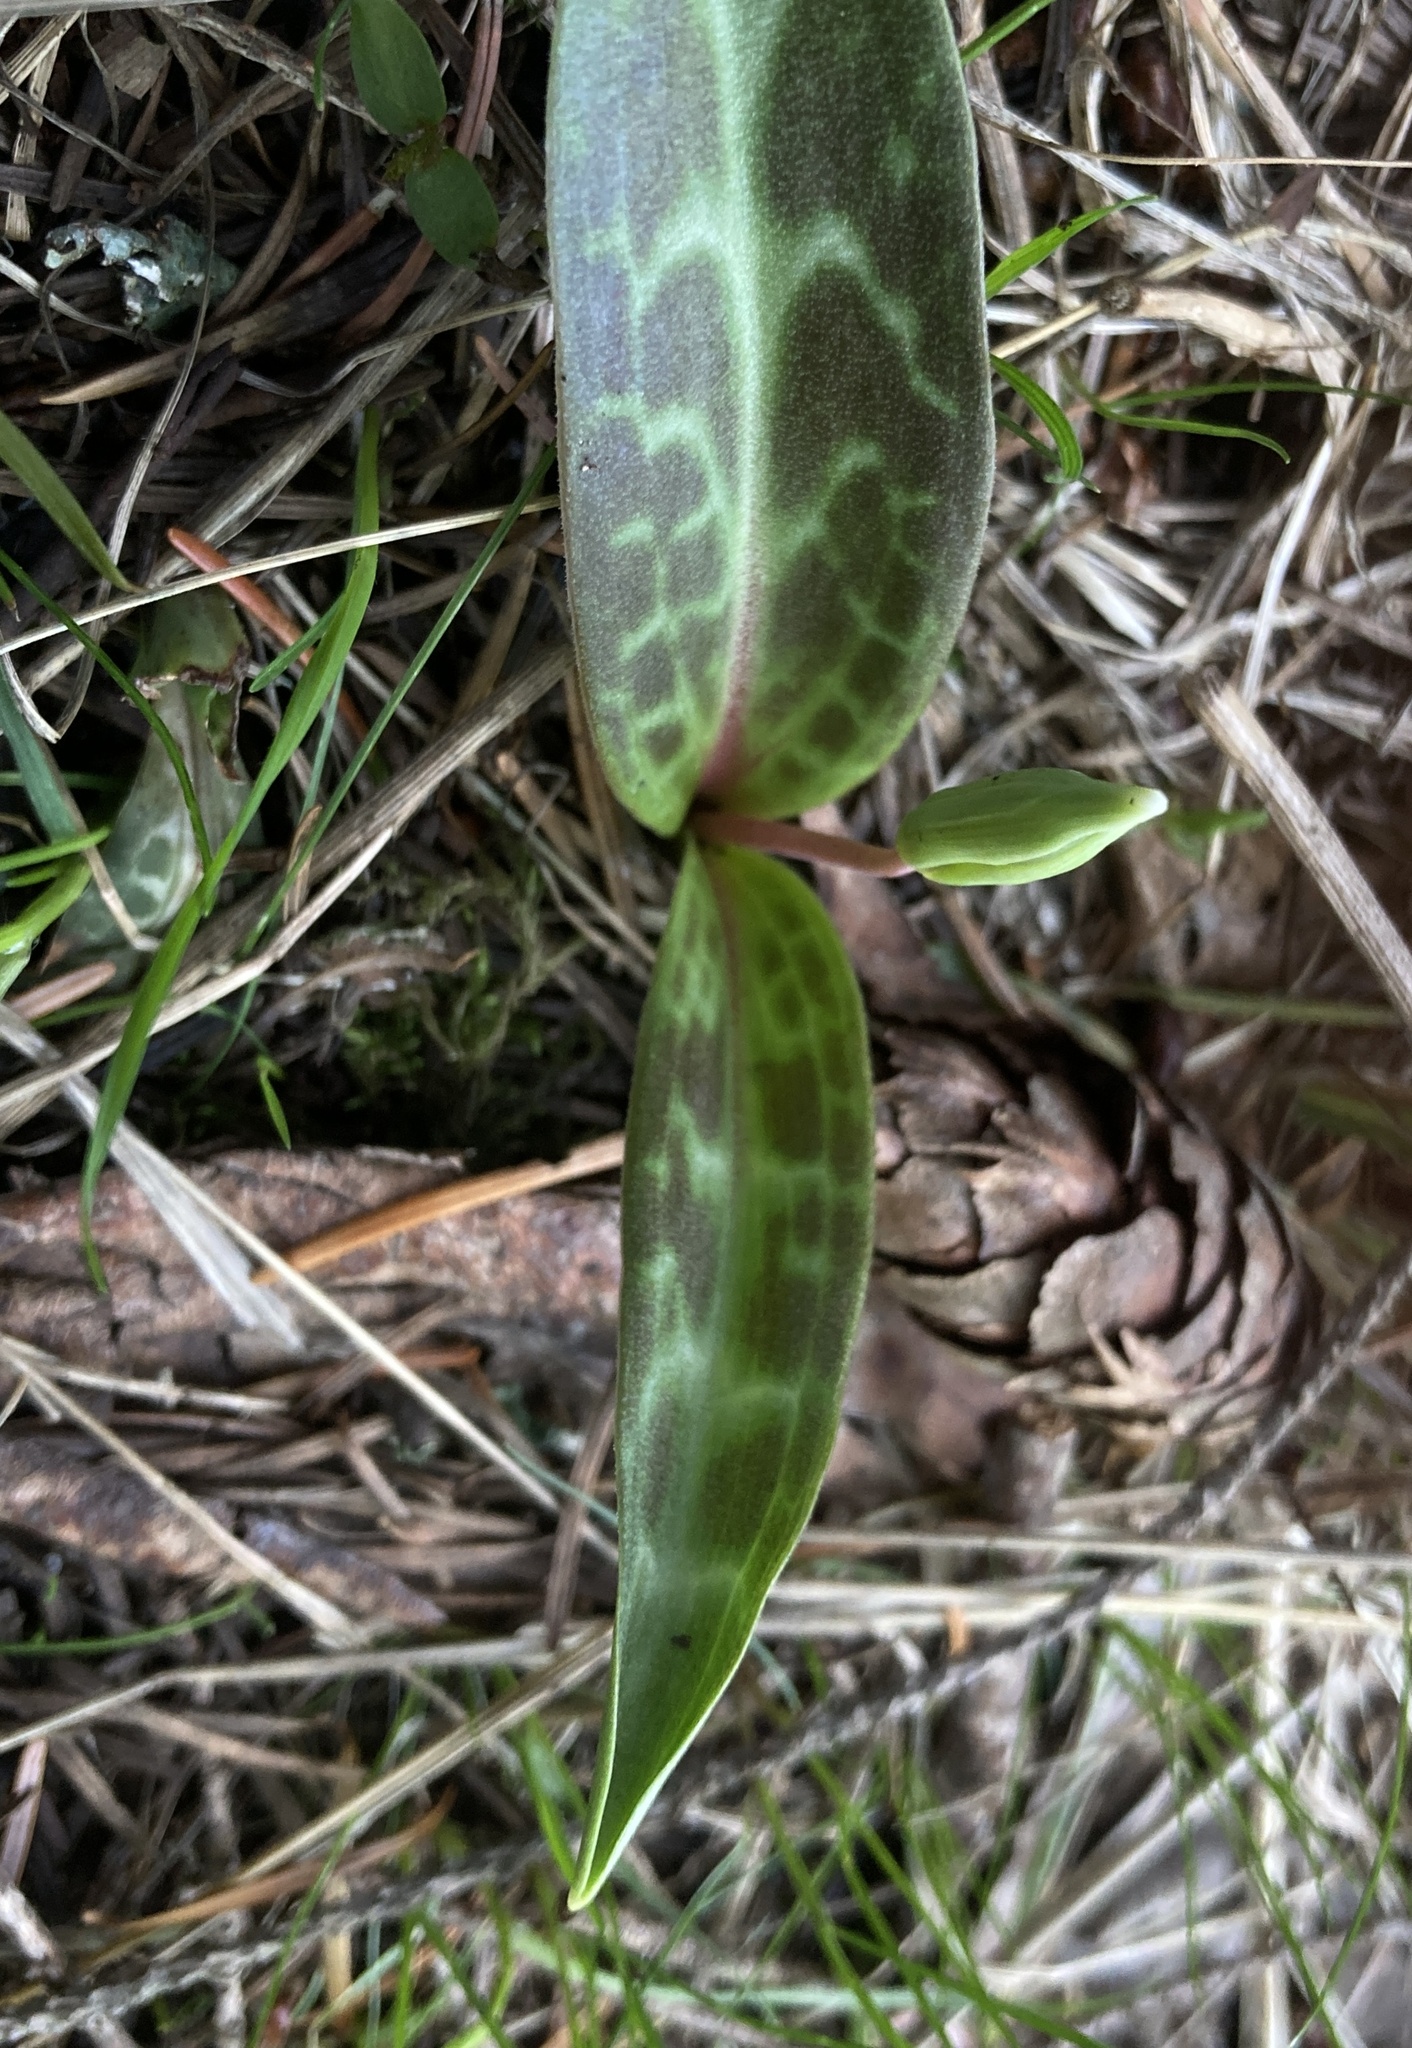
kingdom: Plantae
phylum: Tracheophyta
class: Liliopsida
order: Liliales
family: Liliaceae
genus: Erythronium
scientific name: Erythronium oregonum
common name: Giant adder's-tongue
